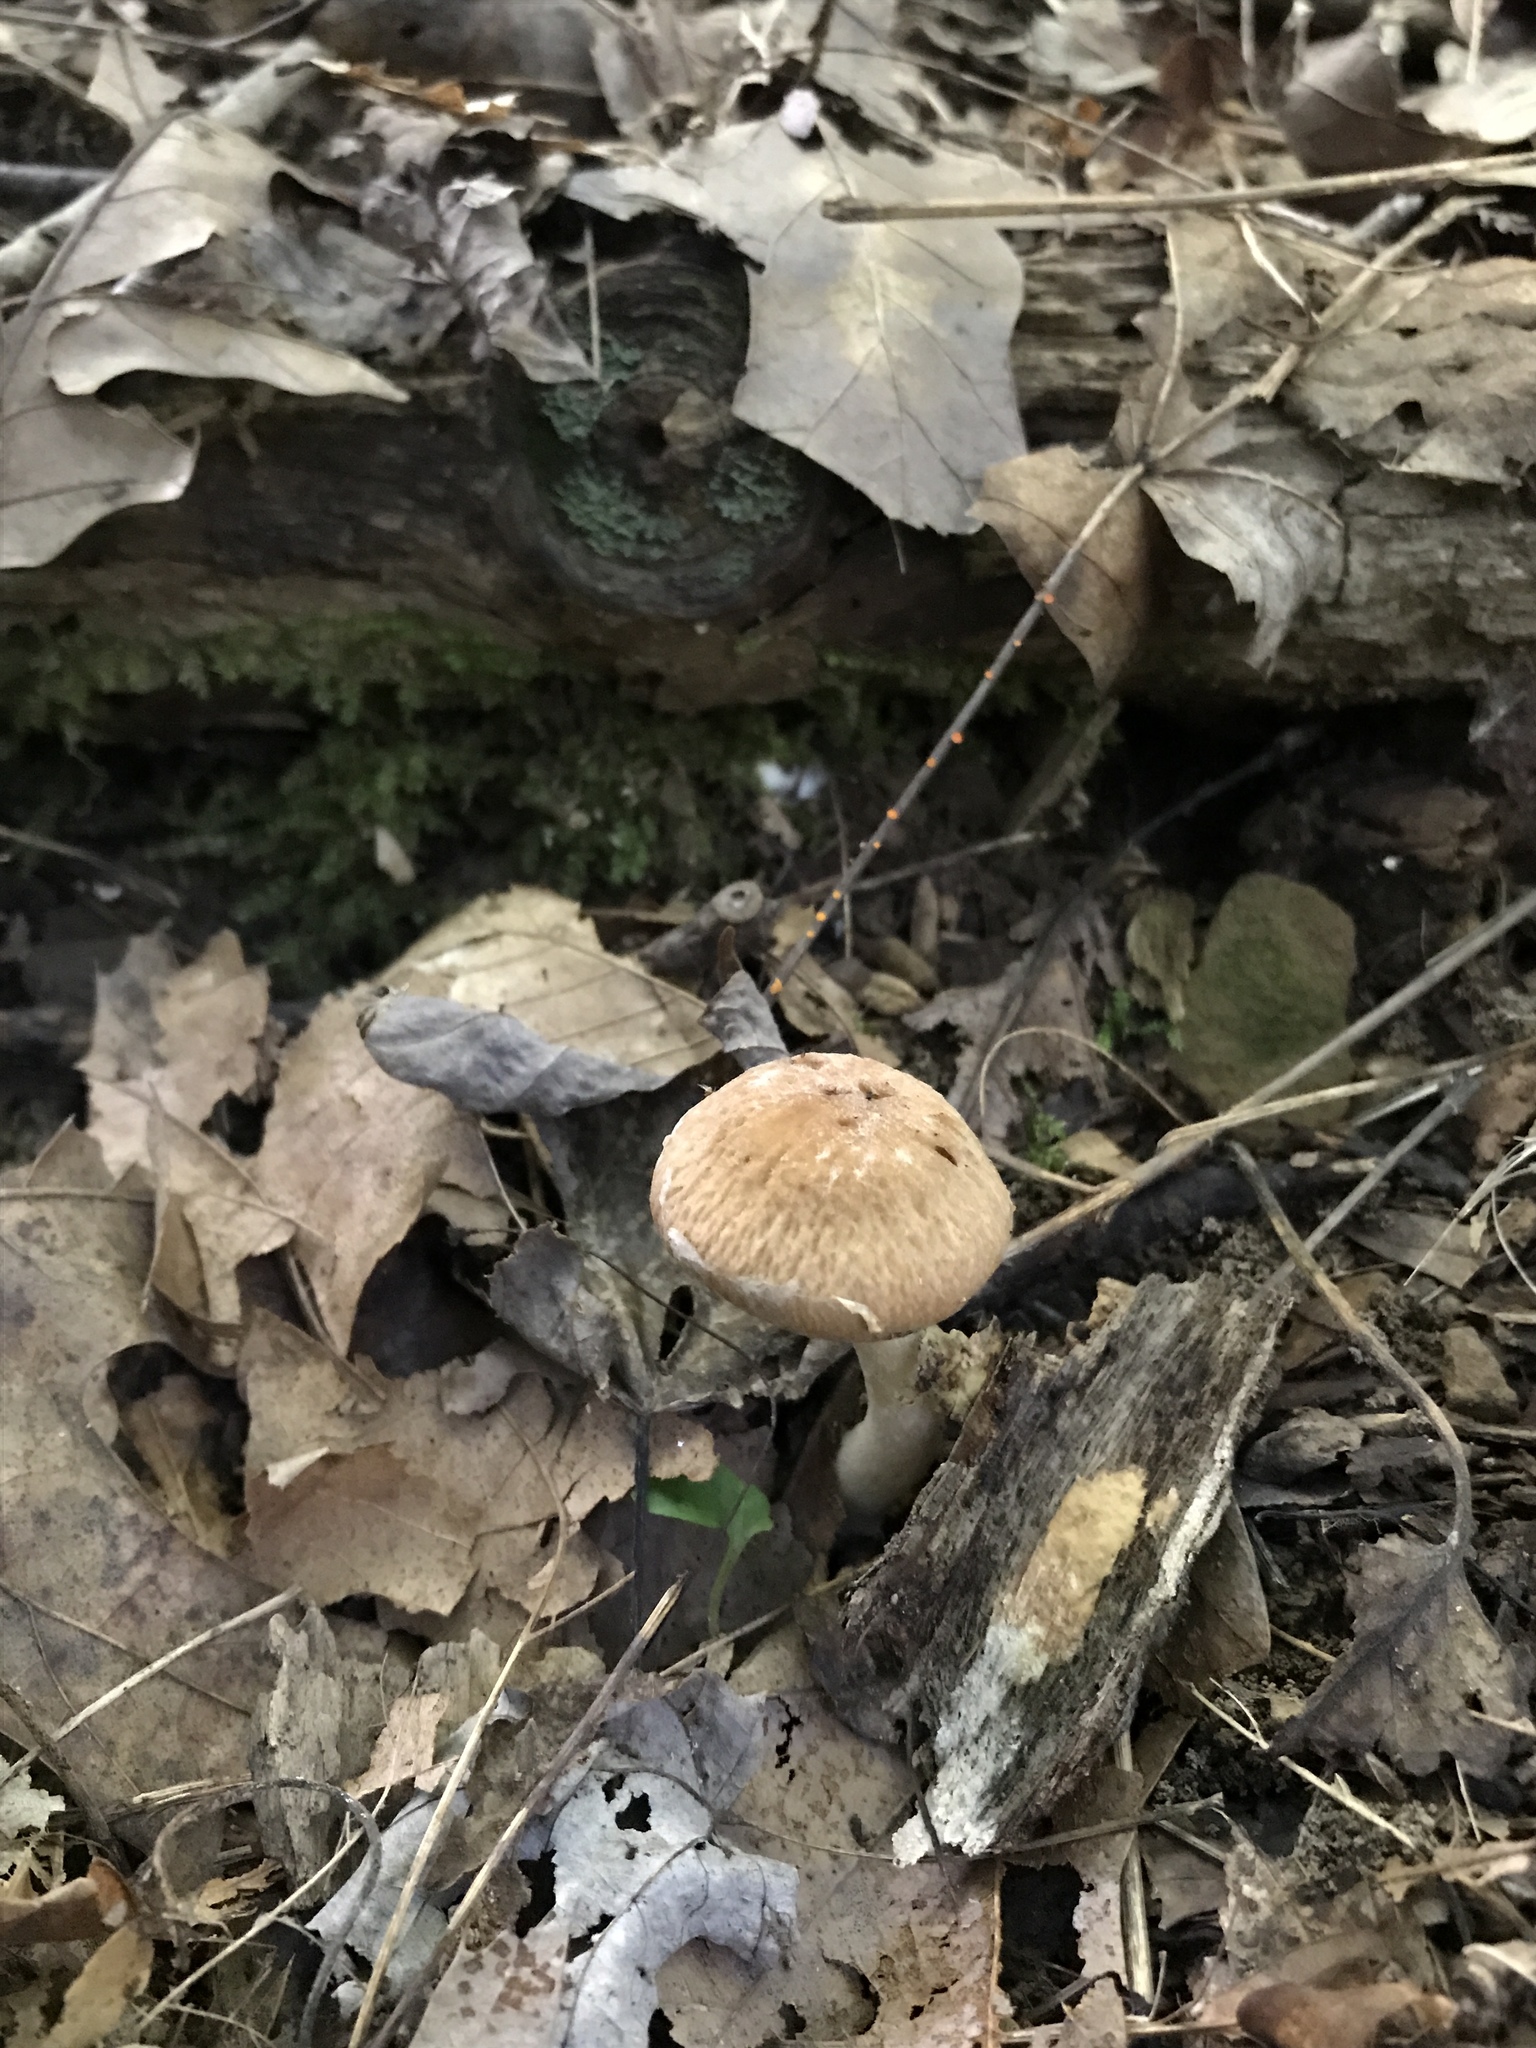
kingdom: Fungi
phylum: Basidiomycota
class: Agaricomycetes
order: Agaricales
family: Psathyrellaceae
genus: Typhrasa
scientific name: Typhrasa gossypina
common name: Wrinkled psathyrella
